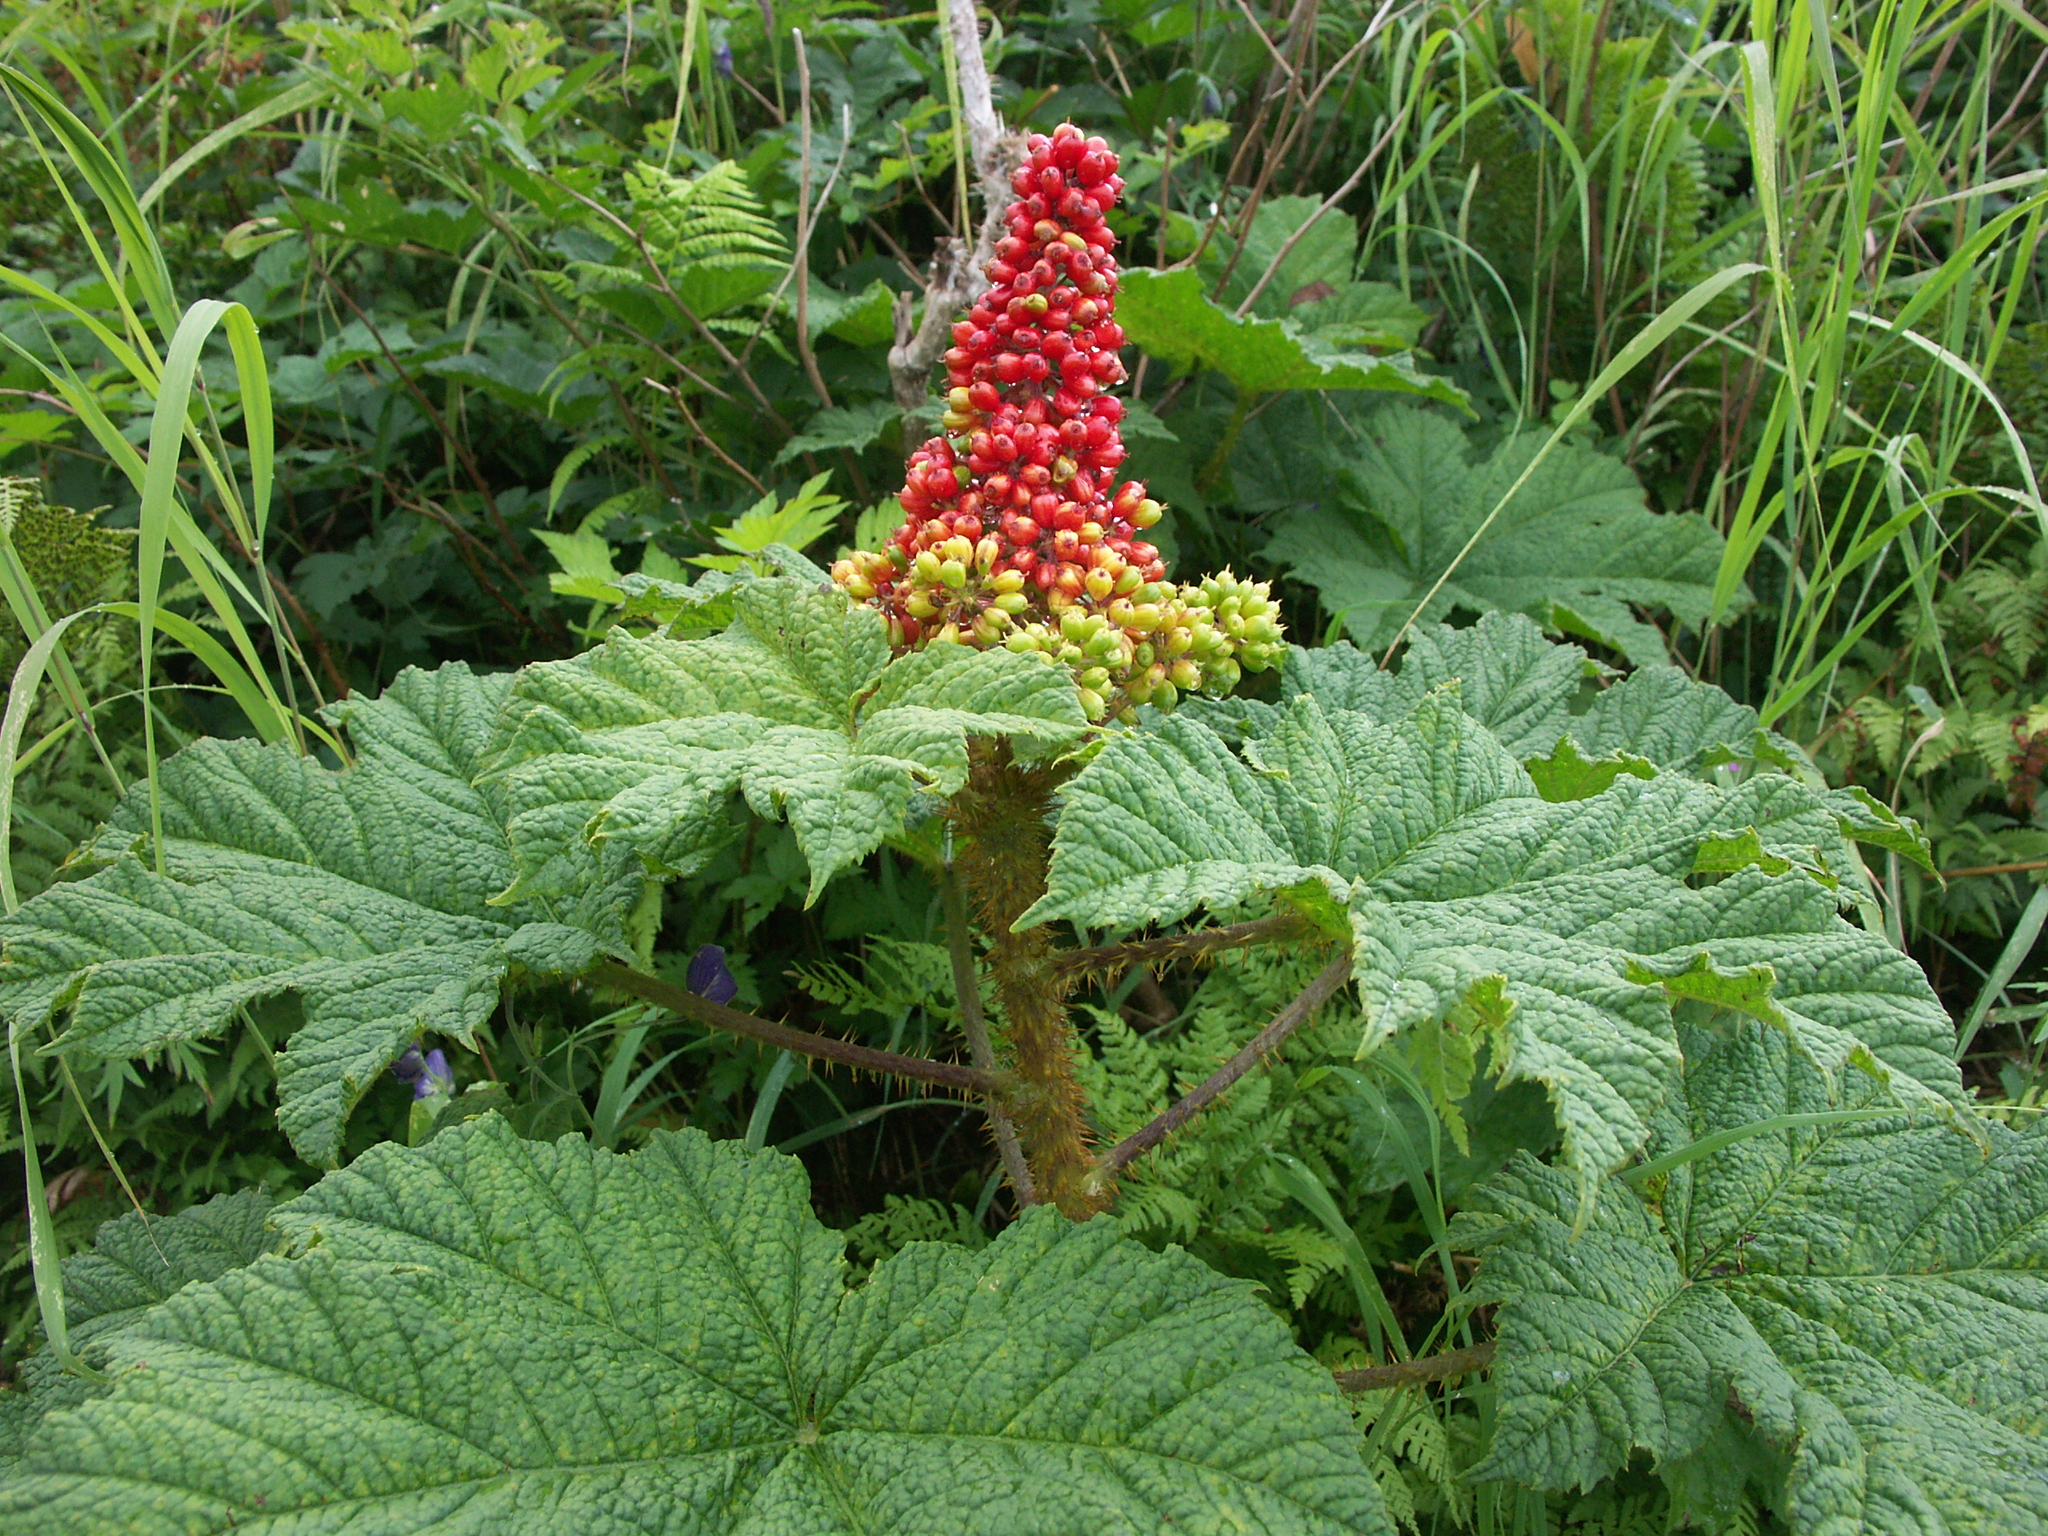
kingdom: Plantae
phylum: Tracheophyta
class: Magnoliopsida
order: Apiales
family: Araliaceae
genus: Oplopanax
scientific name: Oplopanax horridus
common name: Devil's walking-stick
